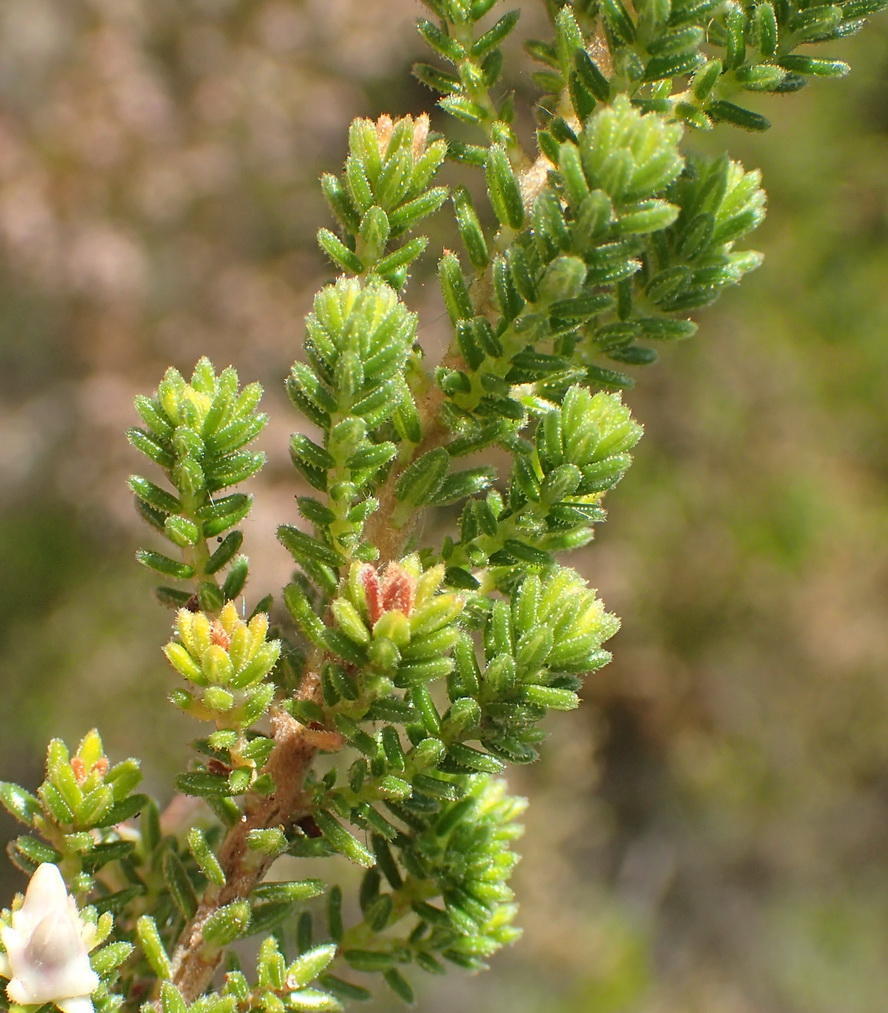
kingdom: Plantae
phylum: Tracheophyta
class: Magnoliopsida
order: Ericales
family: Ericaceae
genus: Erica
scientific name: Erica glomiflora
